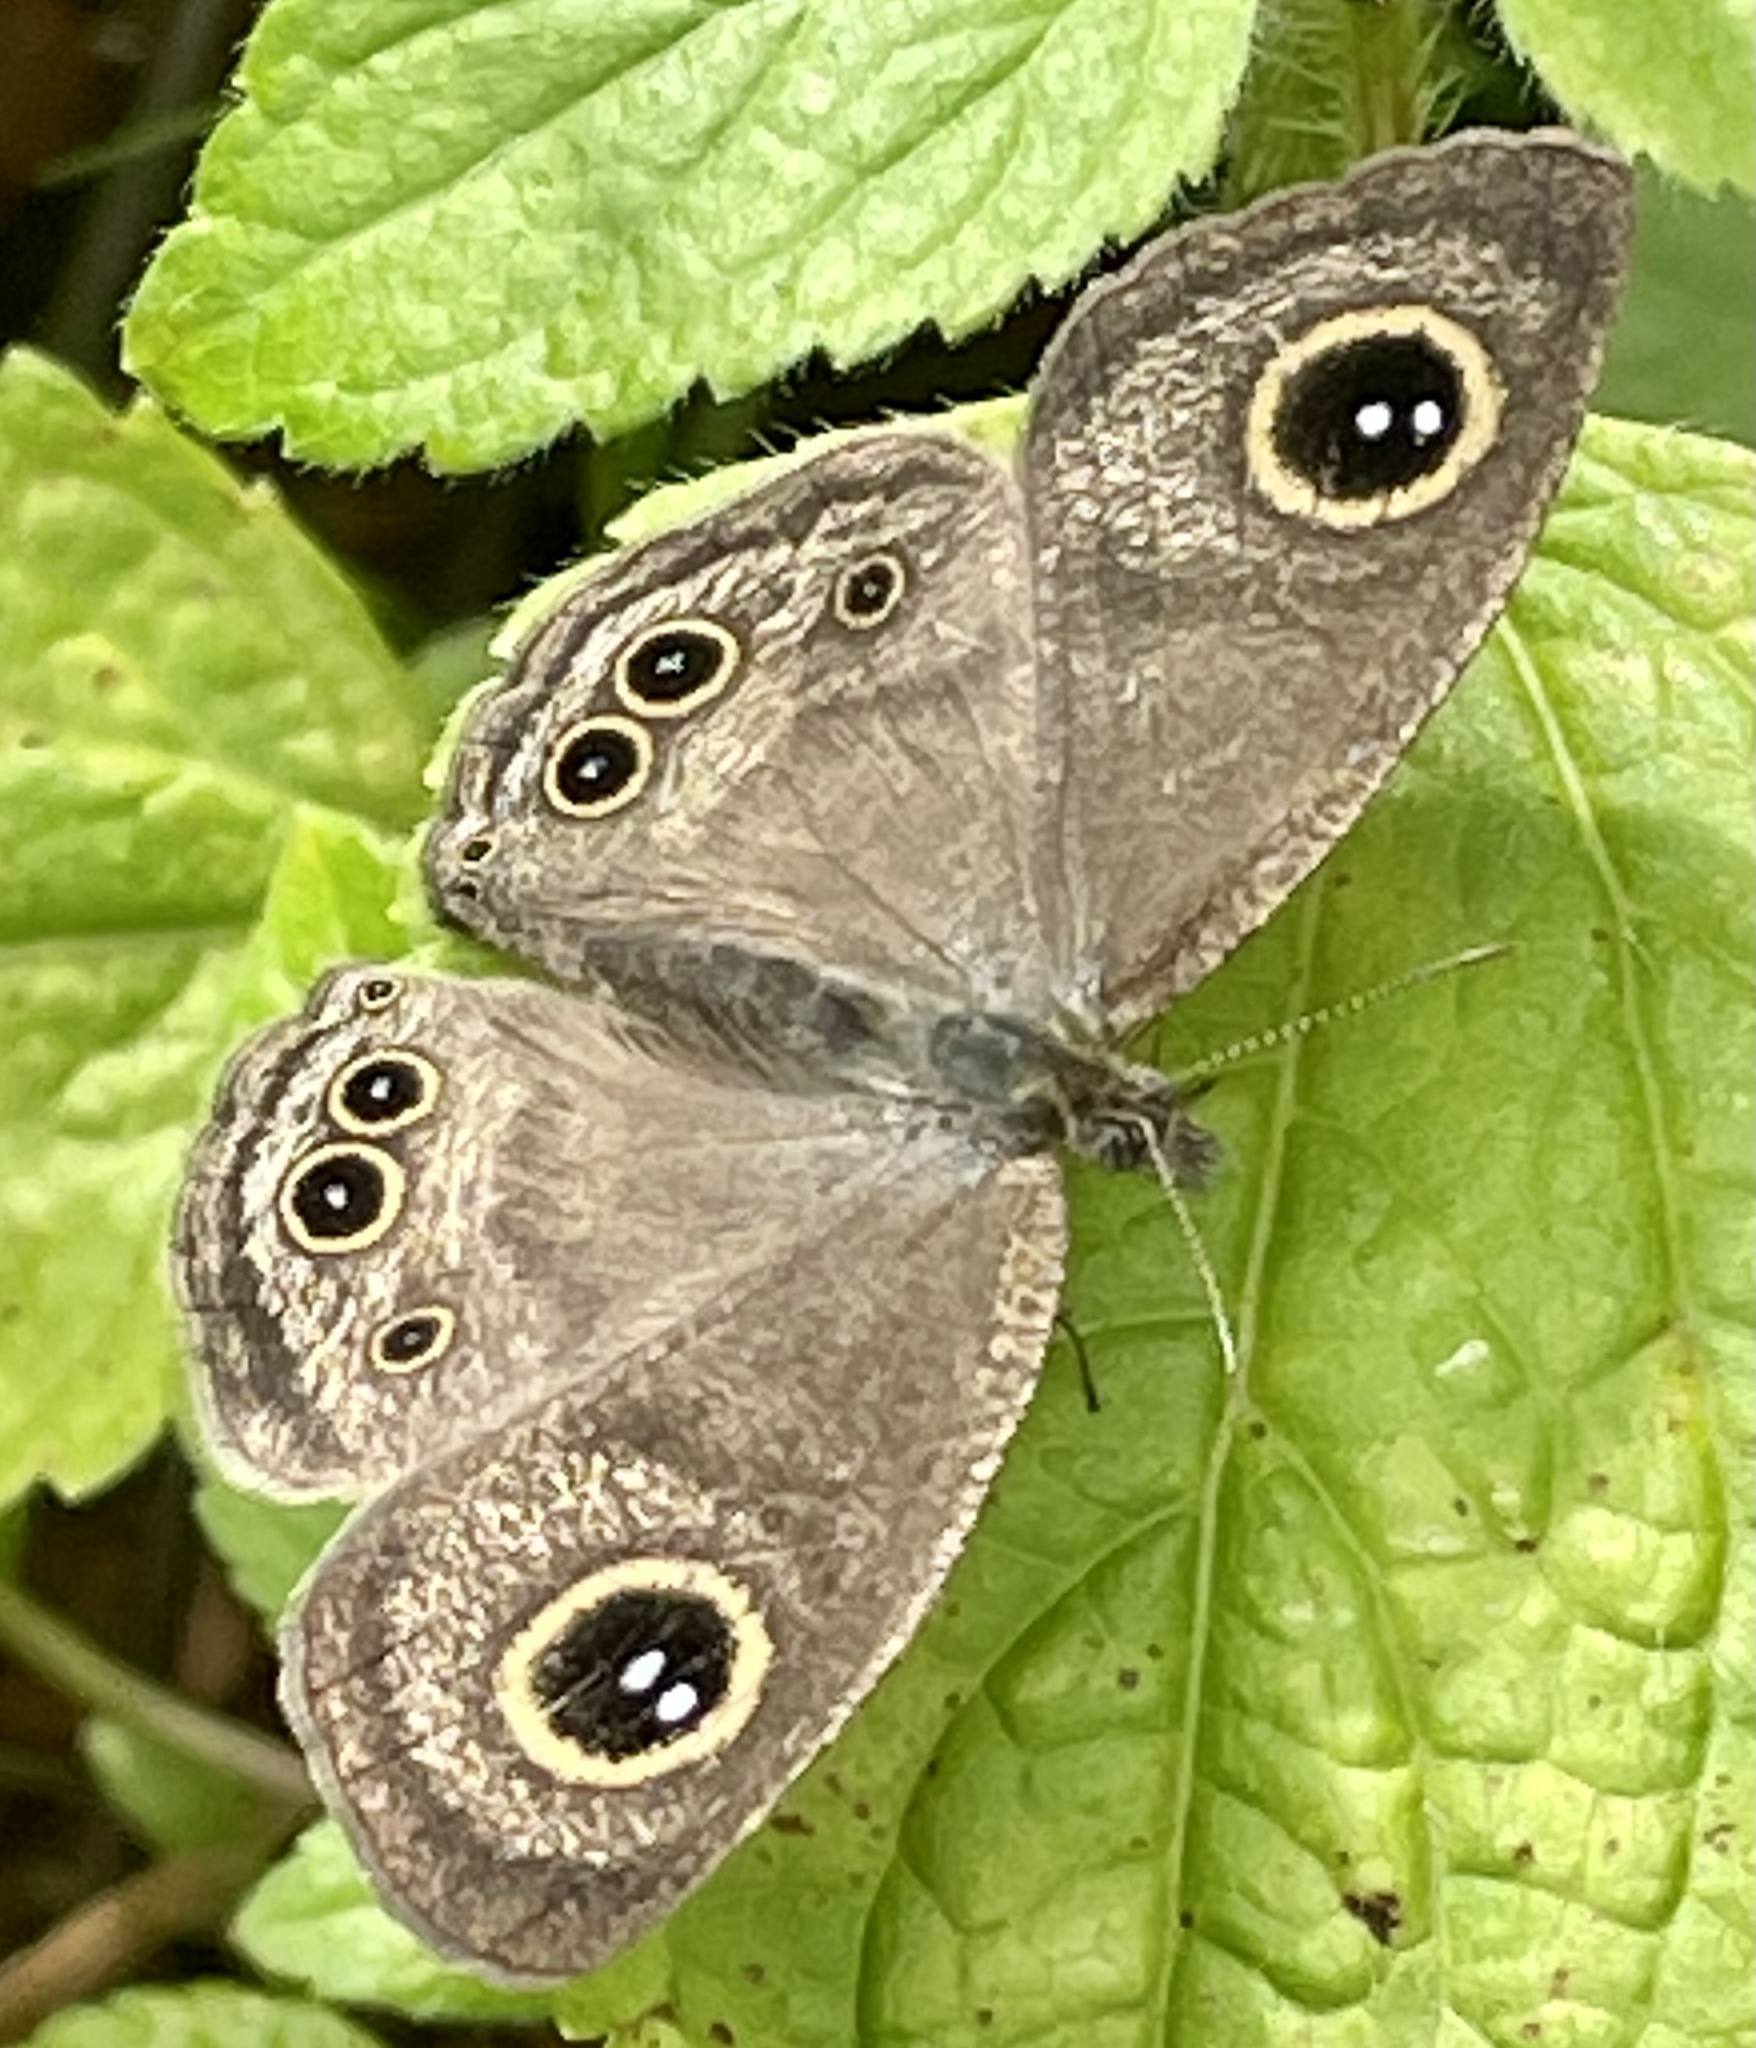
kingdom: Animalia
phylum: Arthropoda
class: Insecta
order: Lepidoptera
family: Nymphalidae
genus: Ypthima
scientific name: Ypthima huebneri
